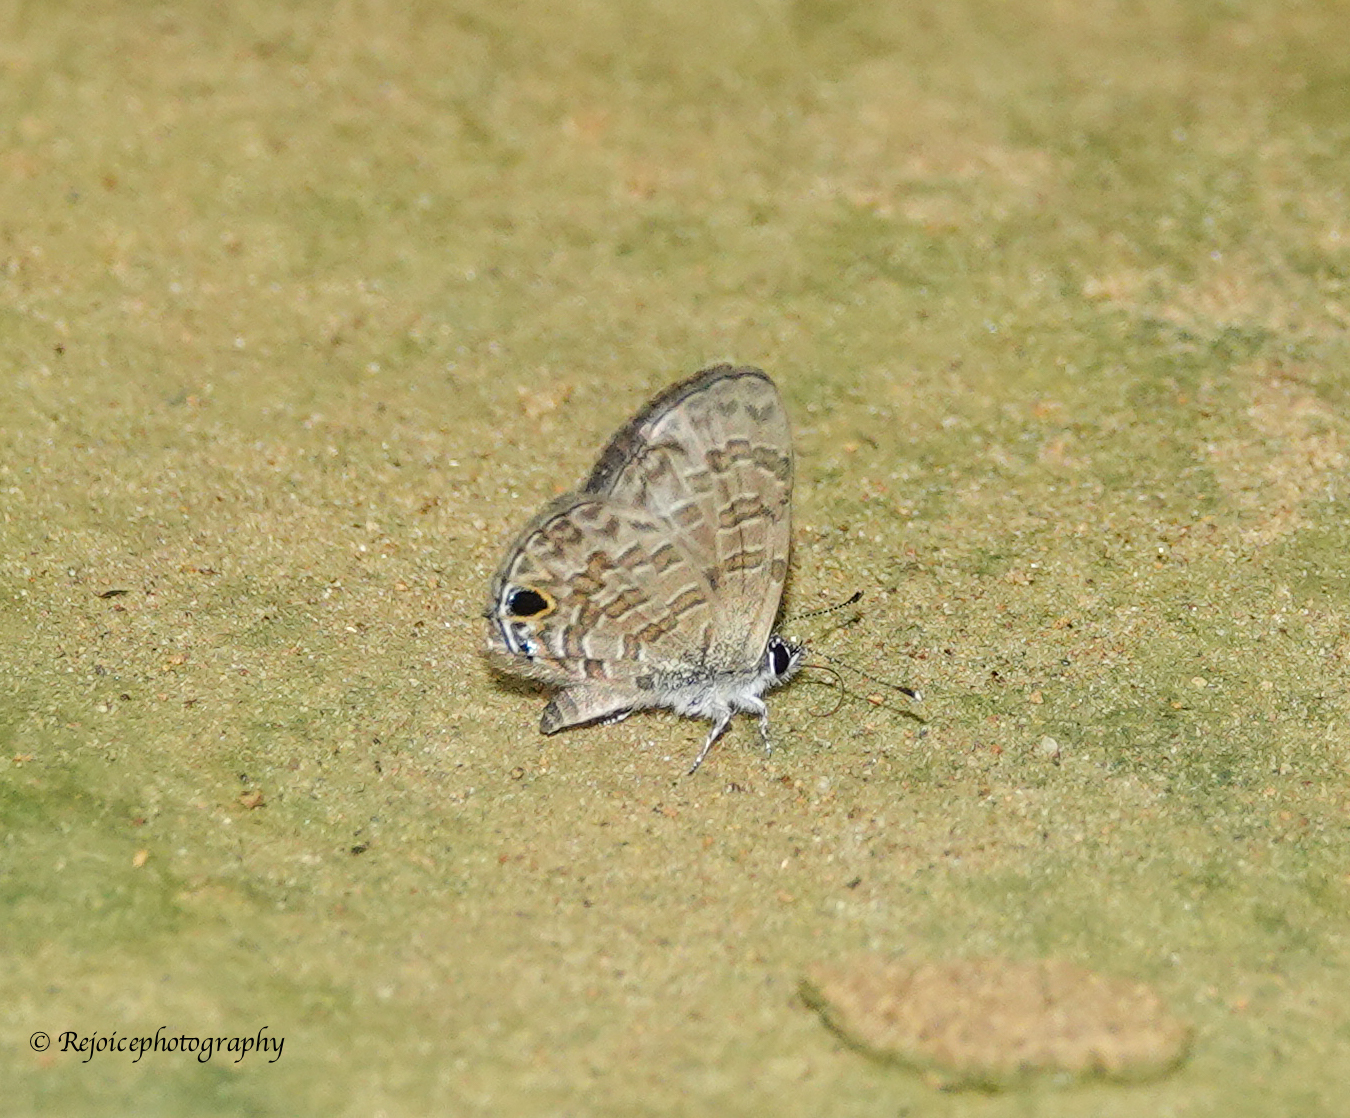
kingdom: Animalia
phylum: Arthropoda
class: Insecta
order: Lepidoptera
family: Lycaenidae
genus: Prosotas
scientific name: Prosotas nora
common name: Common line blue
